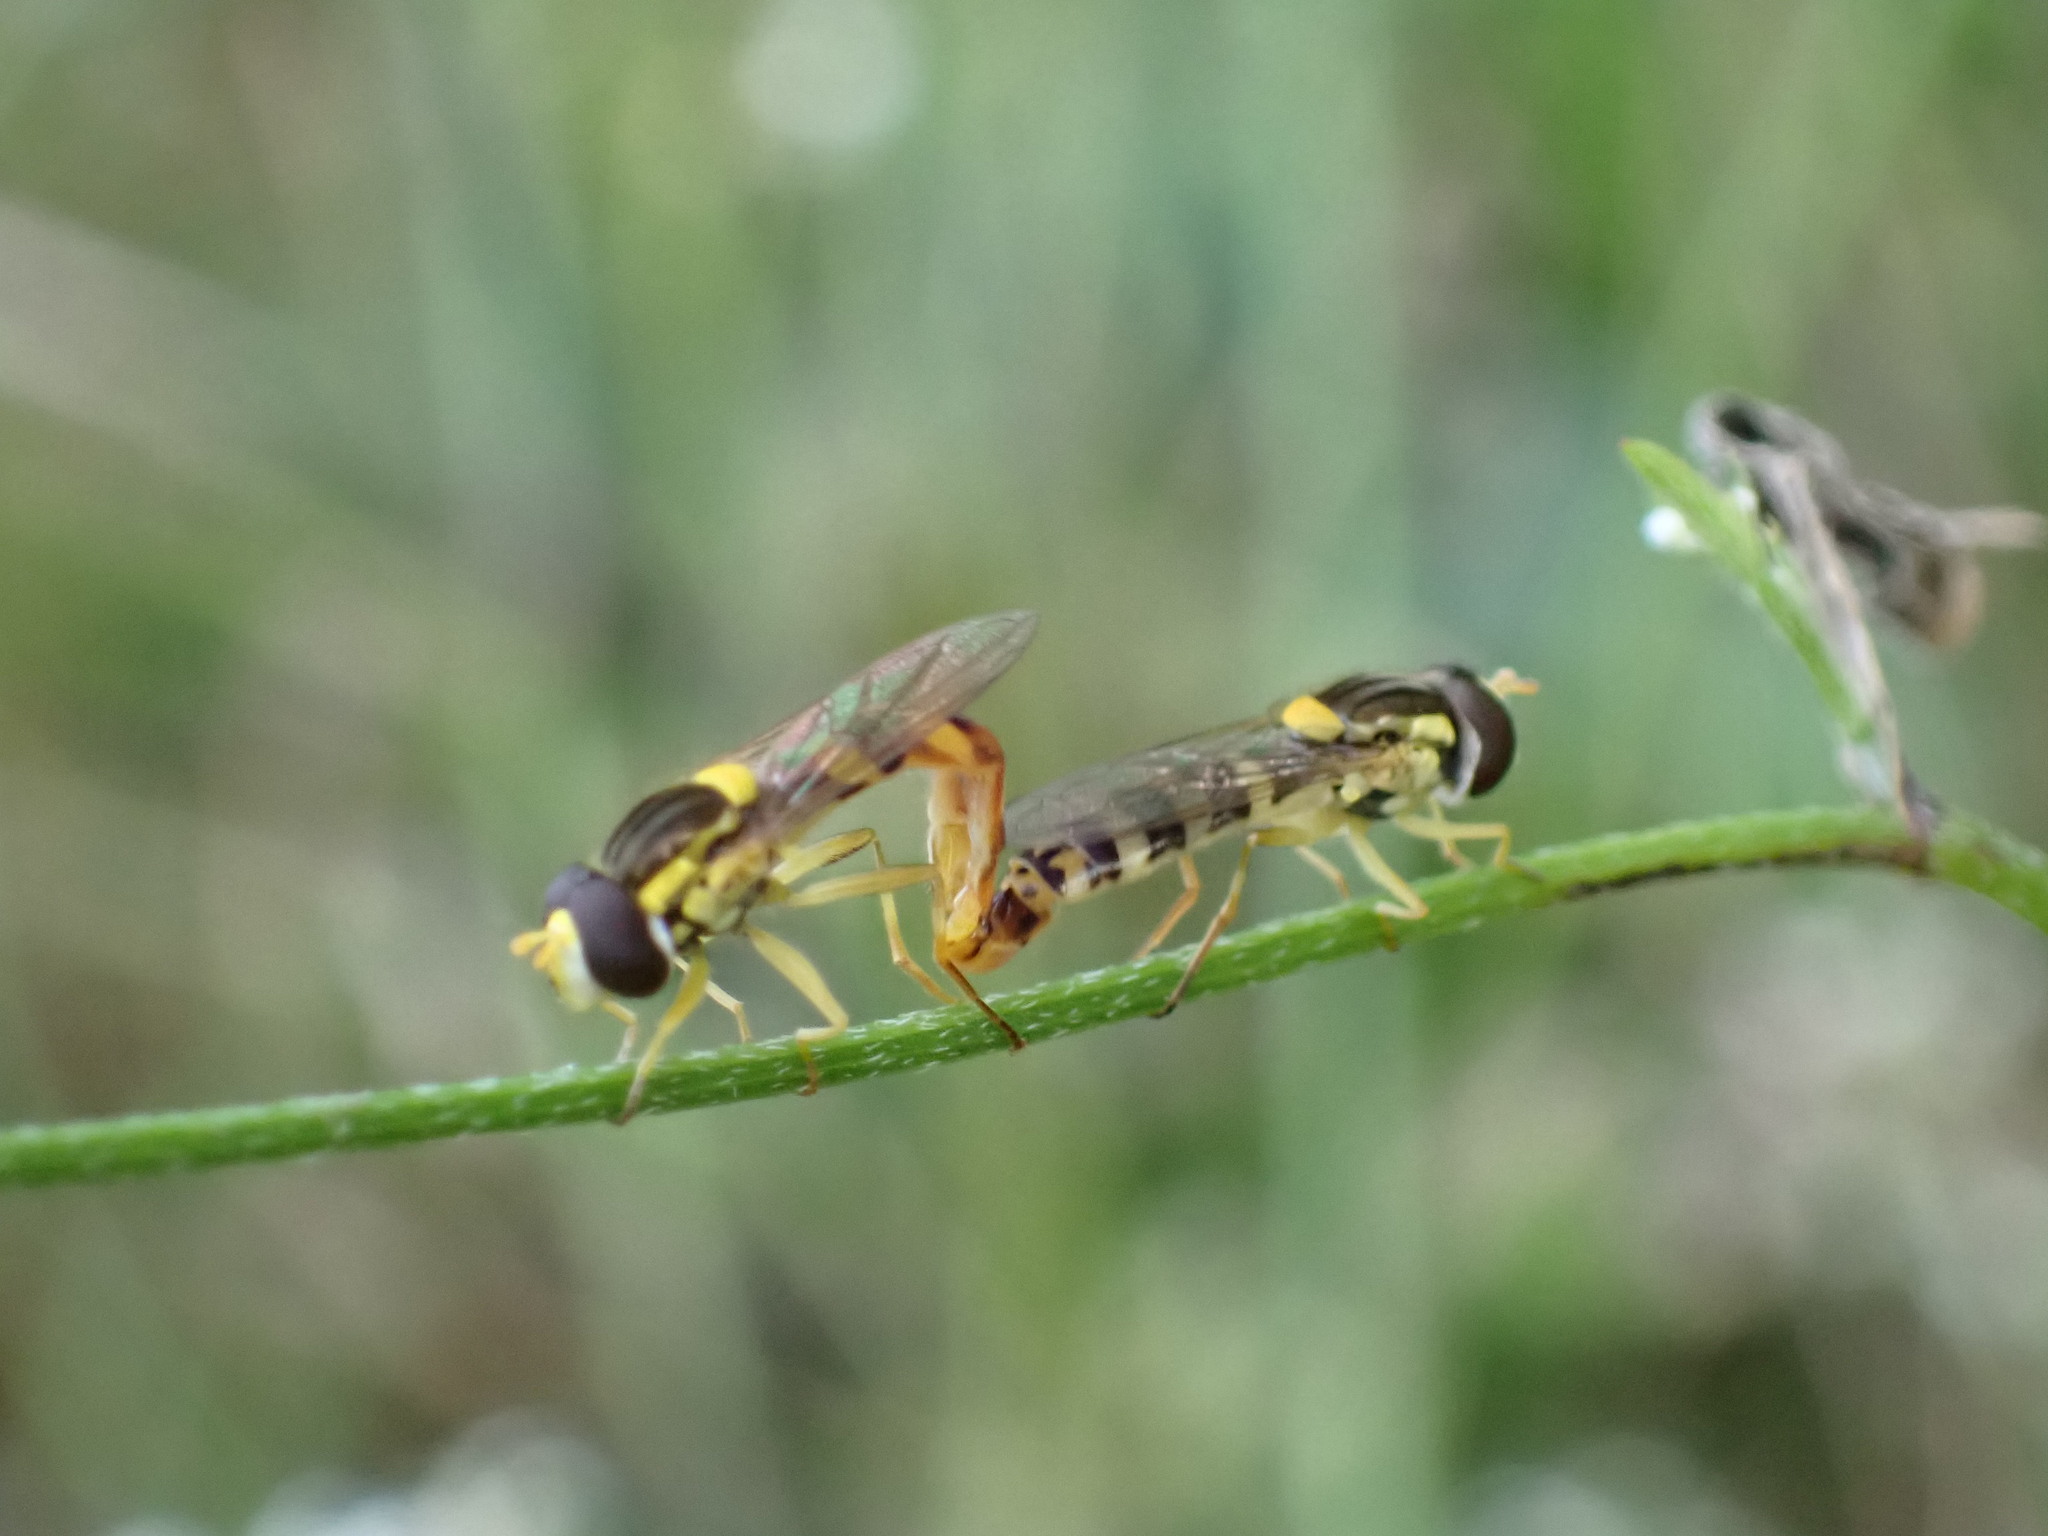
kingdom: Animalia
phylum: Arthropoda
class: Insecta
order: Diptera
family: Syrphidae
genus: Sphaerophoria
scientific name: Sphaerophoria scripta
